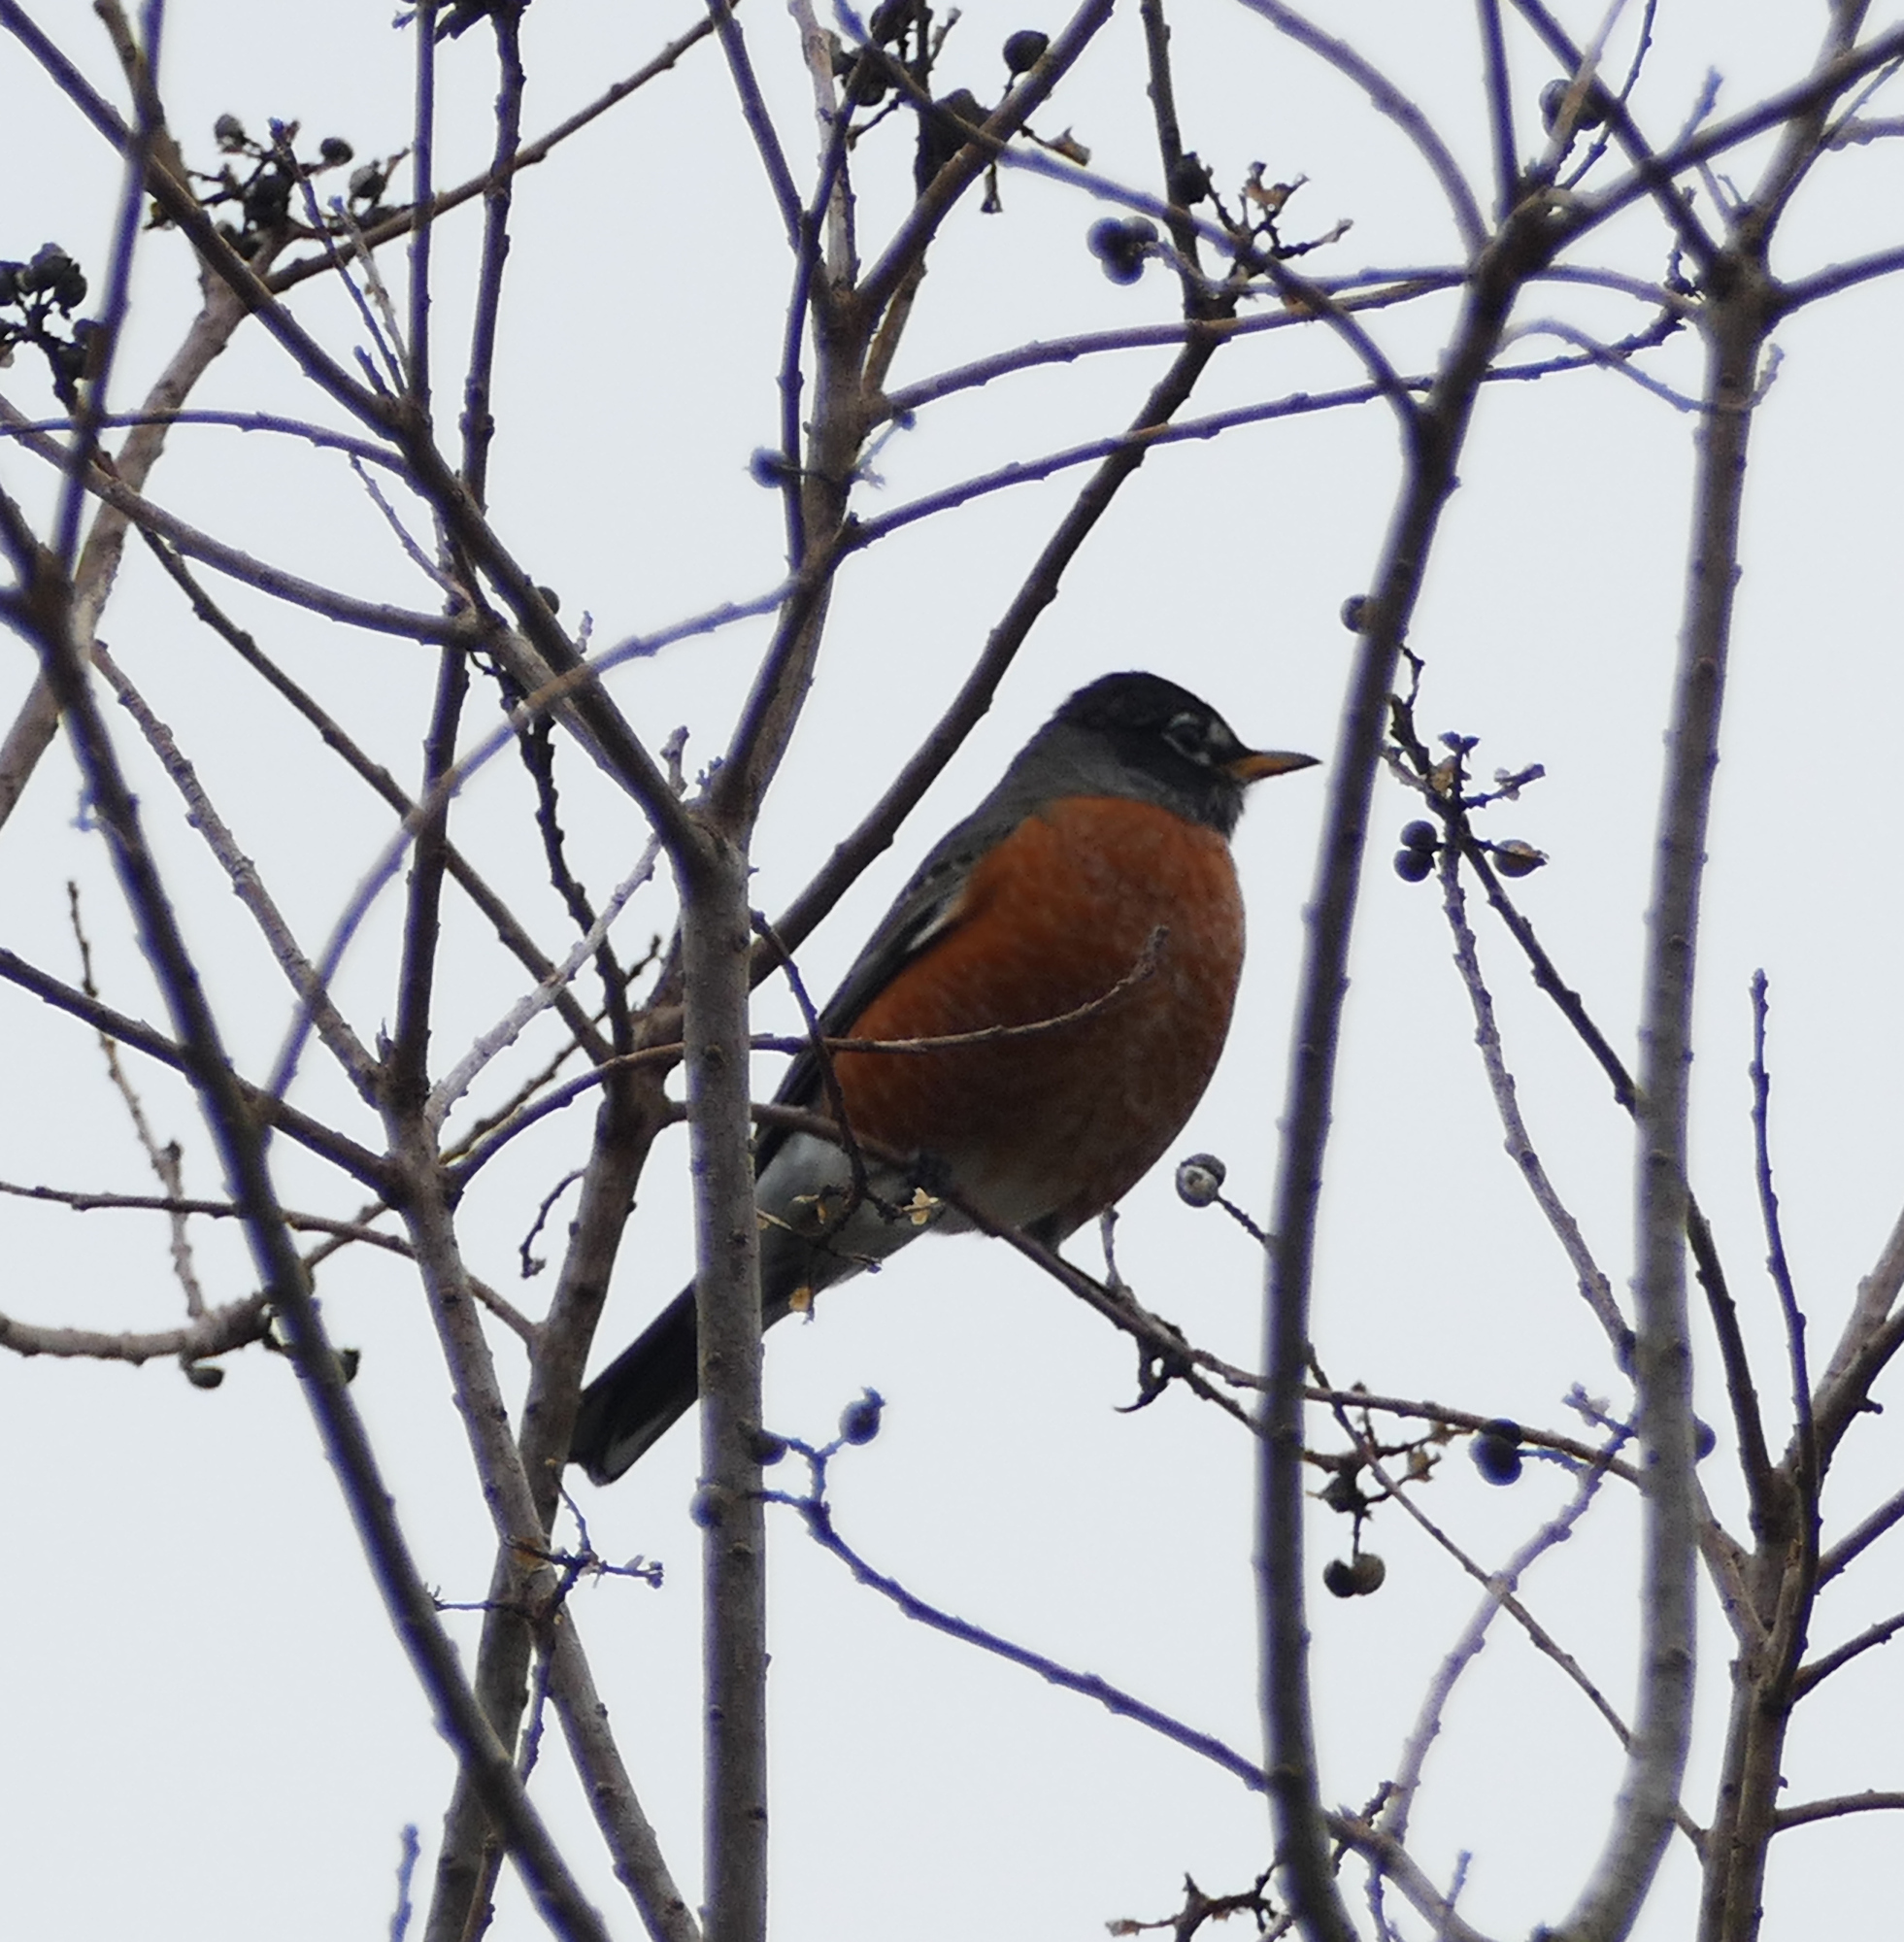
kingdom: Animalia
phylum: Chordata
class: Aves
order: Passeriformes
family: Turdidae
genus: Turdus
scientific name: Turdus migratorius
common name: American robin
